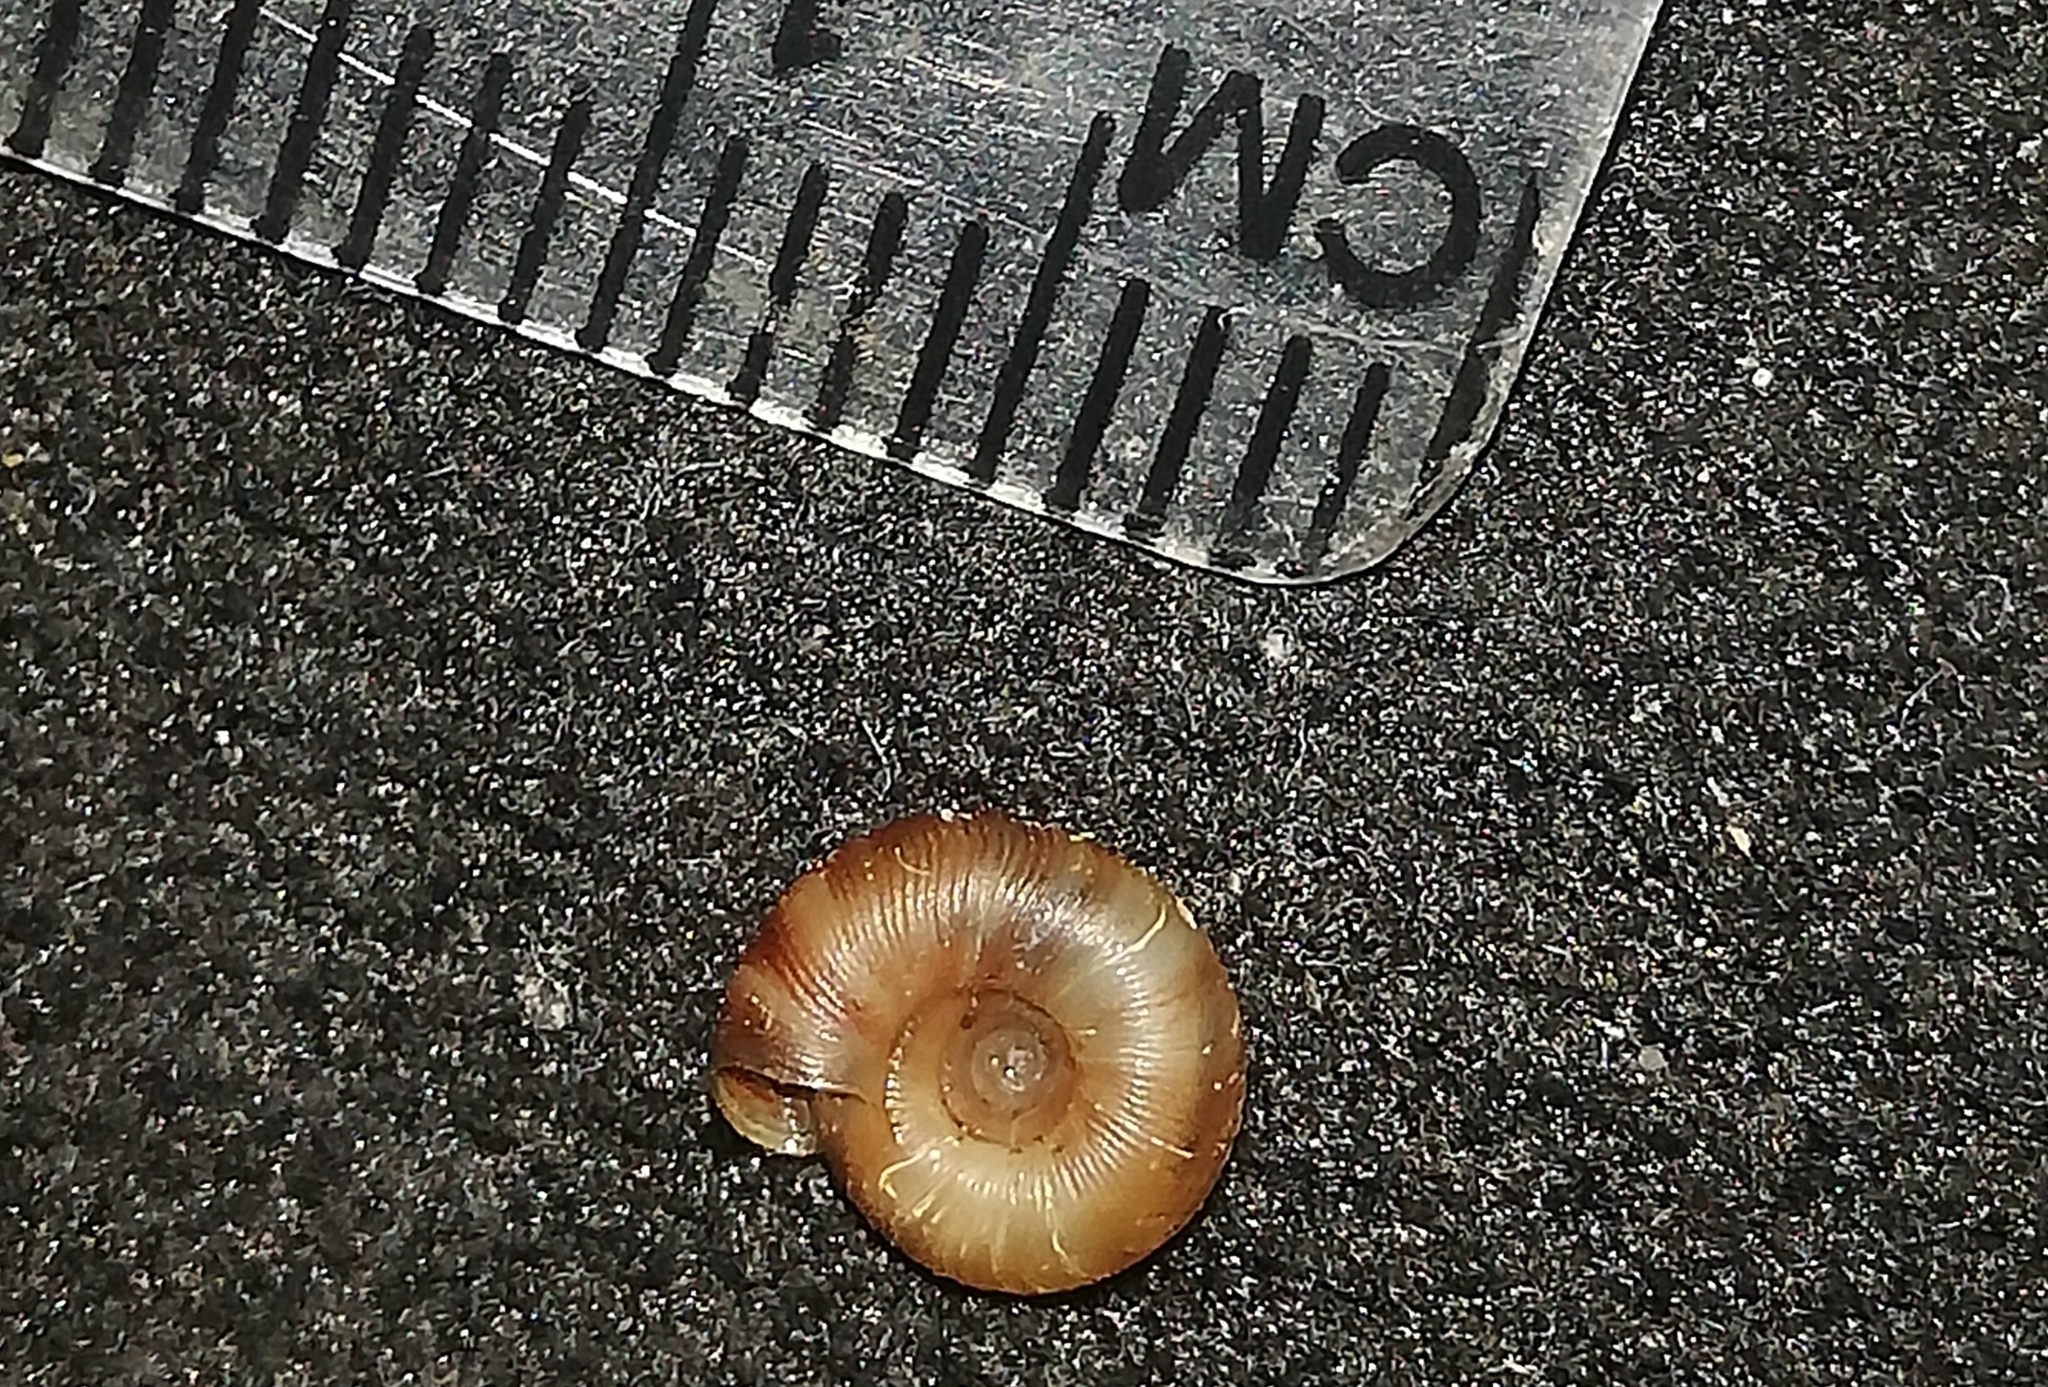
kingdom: Animalia
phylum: Mollusca
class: Gastropoda
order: Stylommatophora
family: Discidae
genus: Discus
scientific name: Discus rotundatus
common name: Rounded snail
